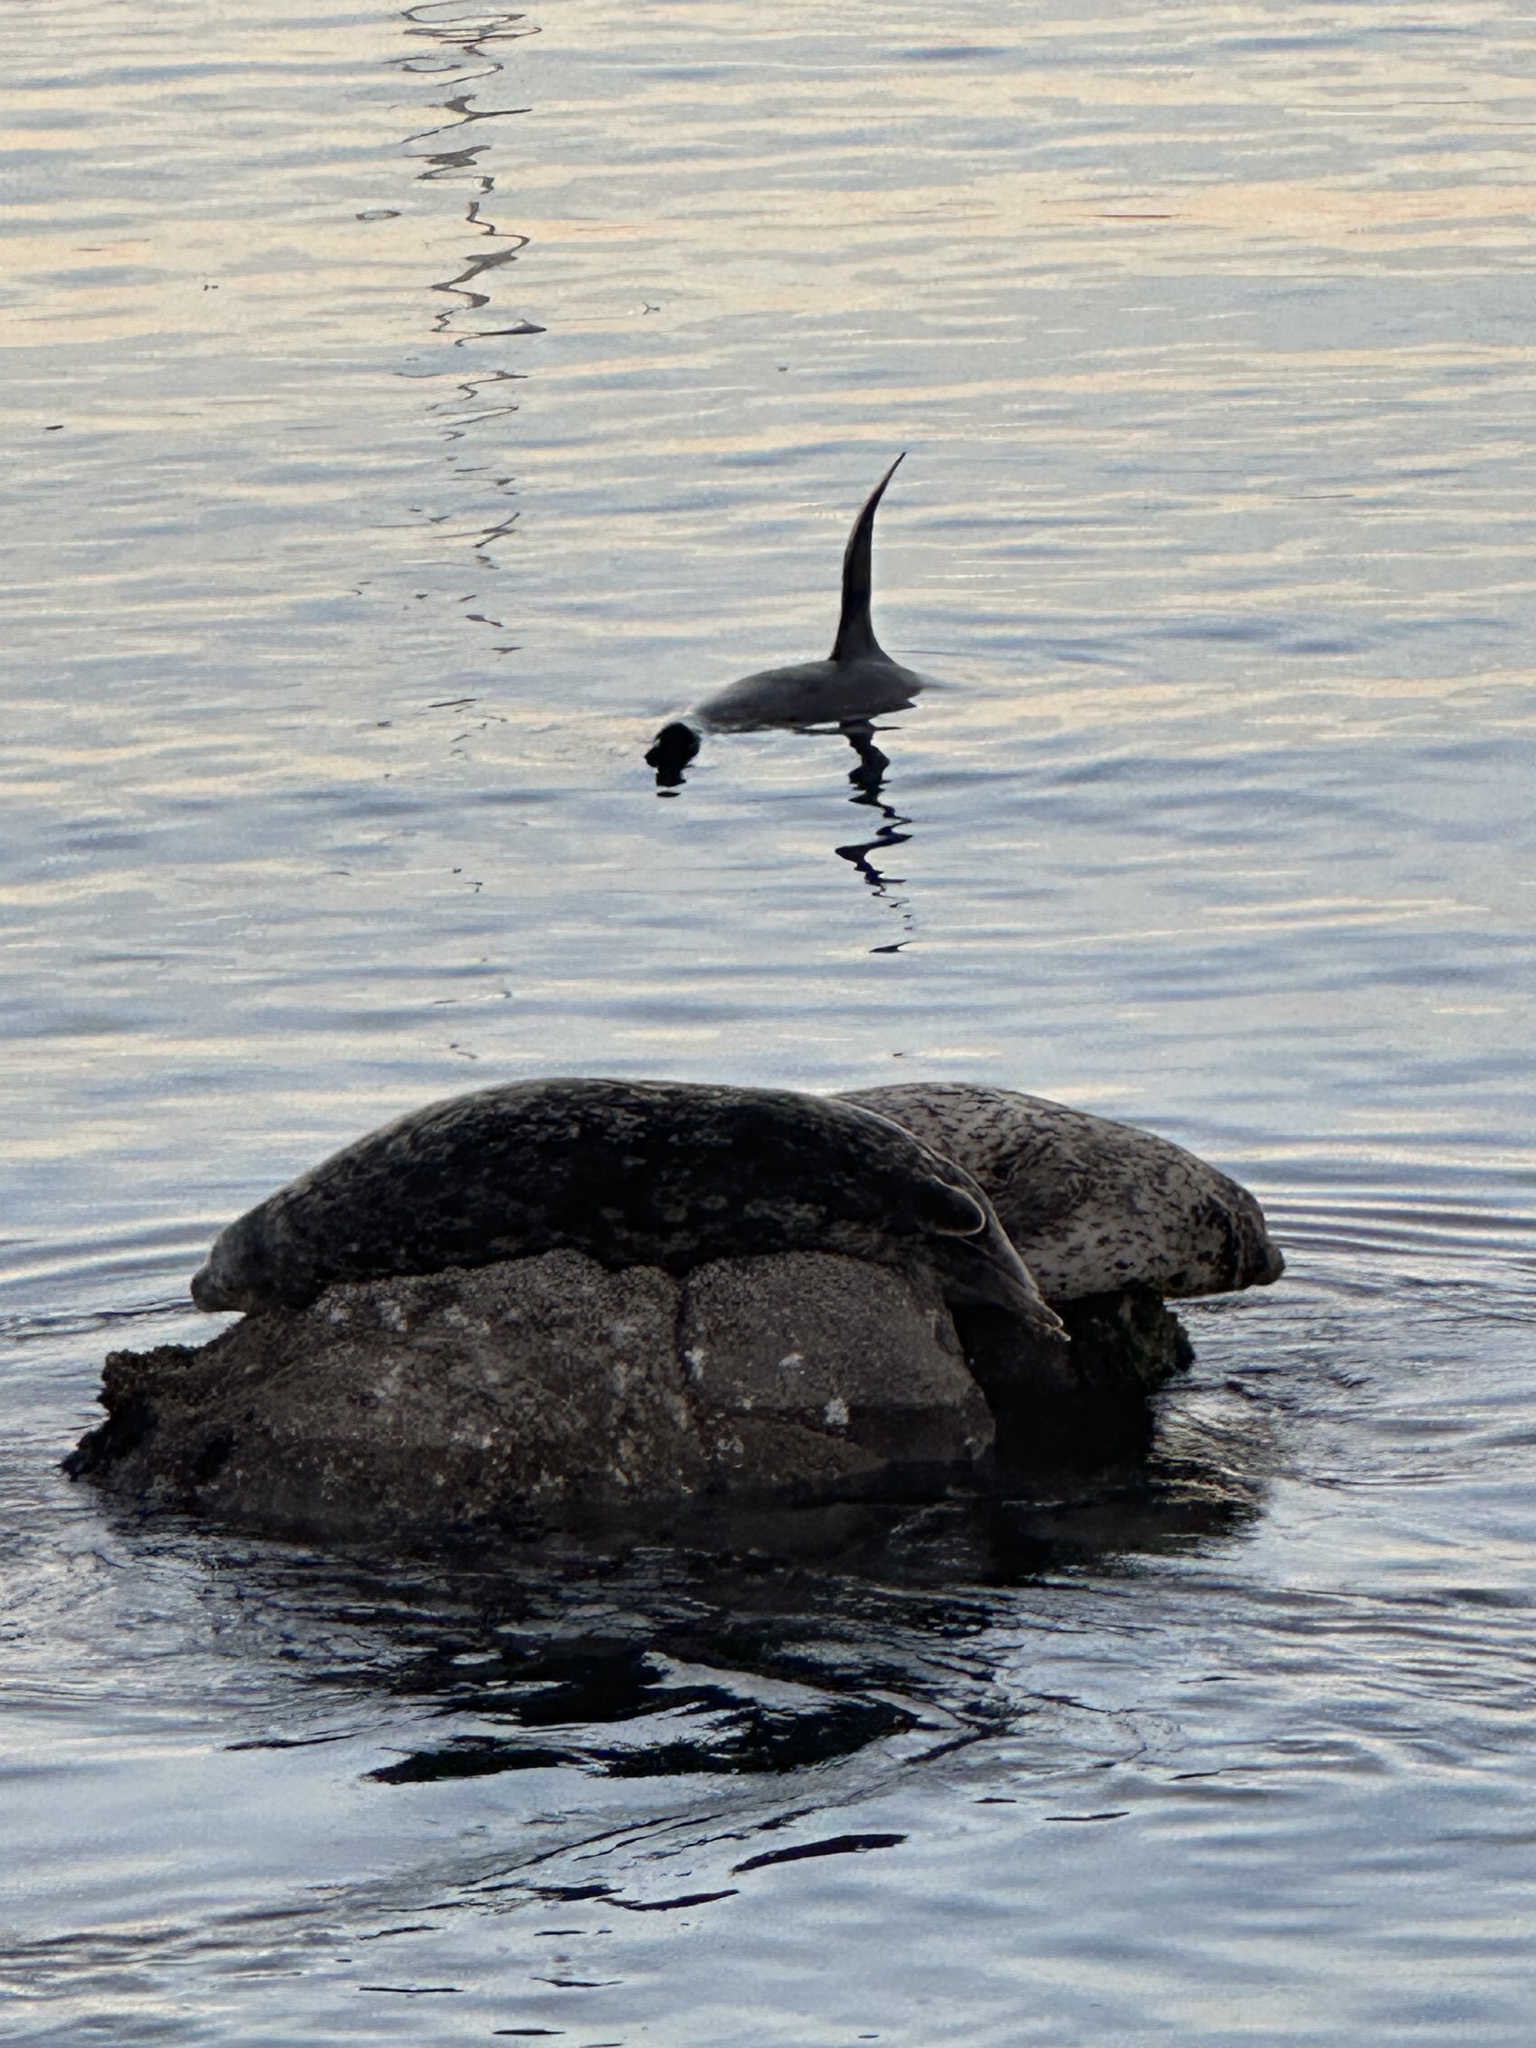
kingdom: Animalia
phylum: Chordata
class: Mammalia
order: Carnivora
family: Phocidae
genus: Phoca
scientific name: Phoca vitulina
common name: Harbor seal
